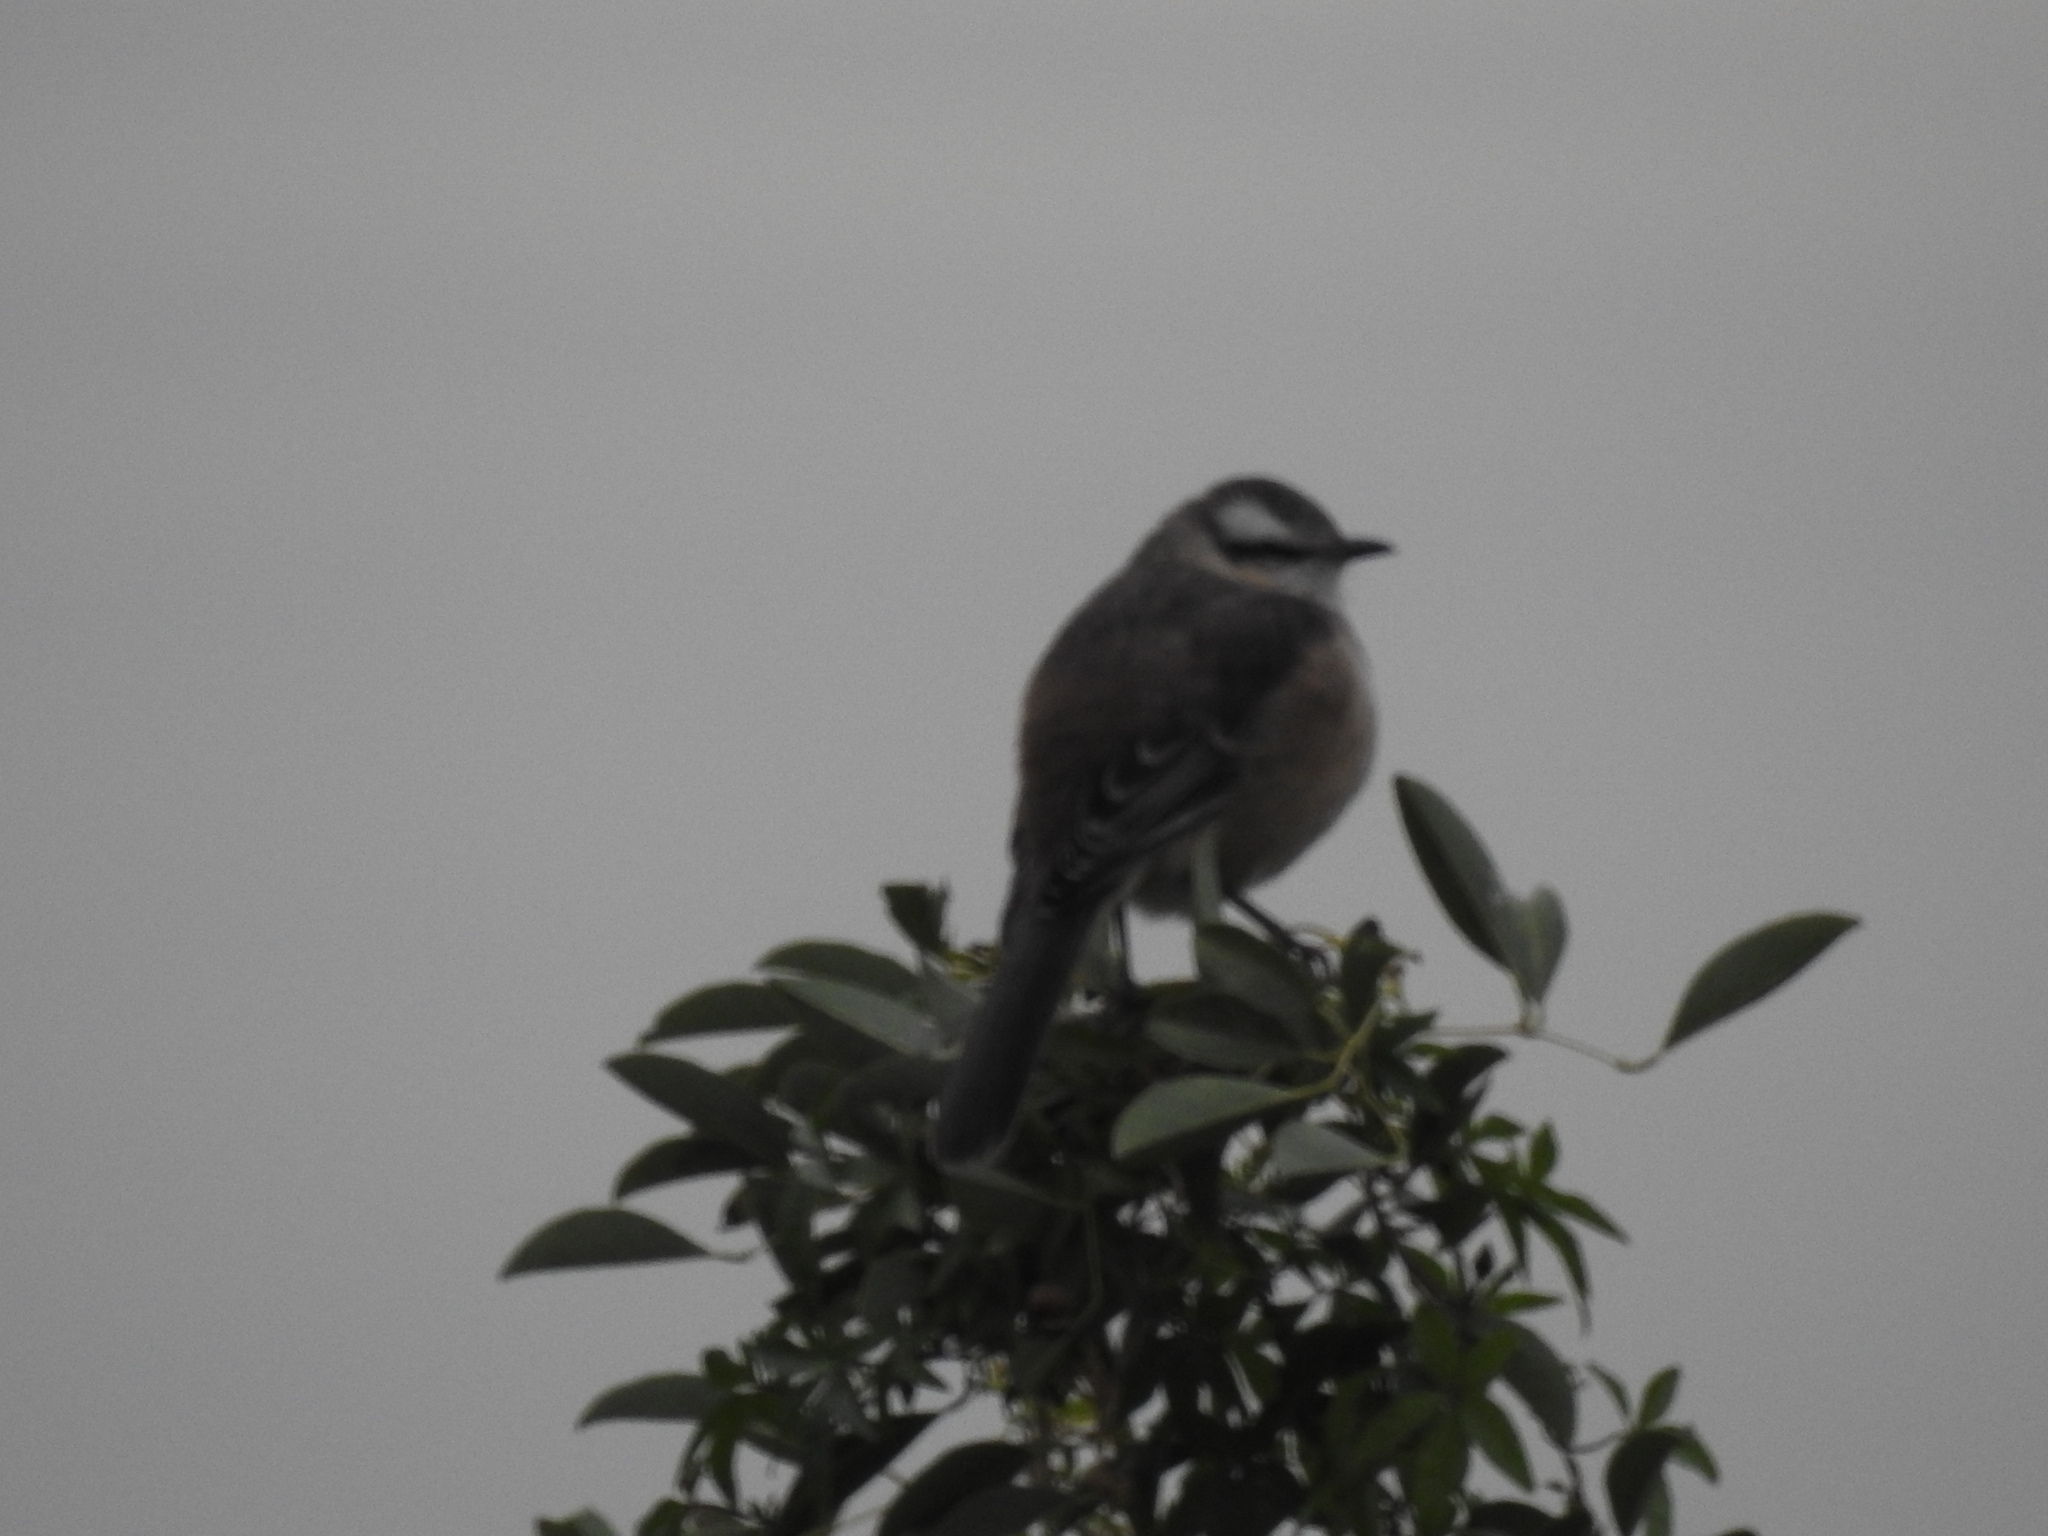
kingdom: Animalia
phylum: Chordata
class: Aves
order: Passeriformes
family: Mimidae
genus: Mimus
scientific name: Mimus saturninus
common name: Chalk-browed mockingbird
